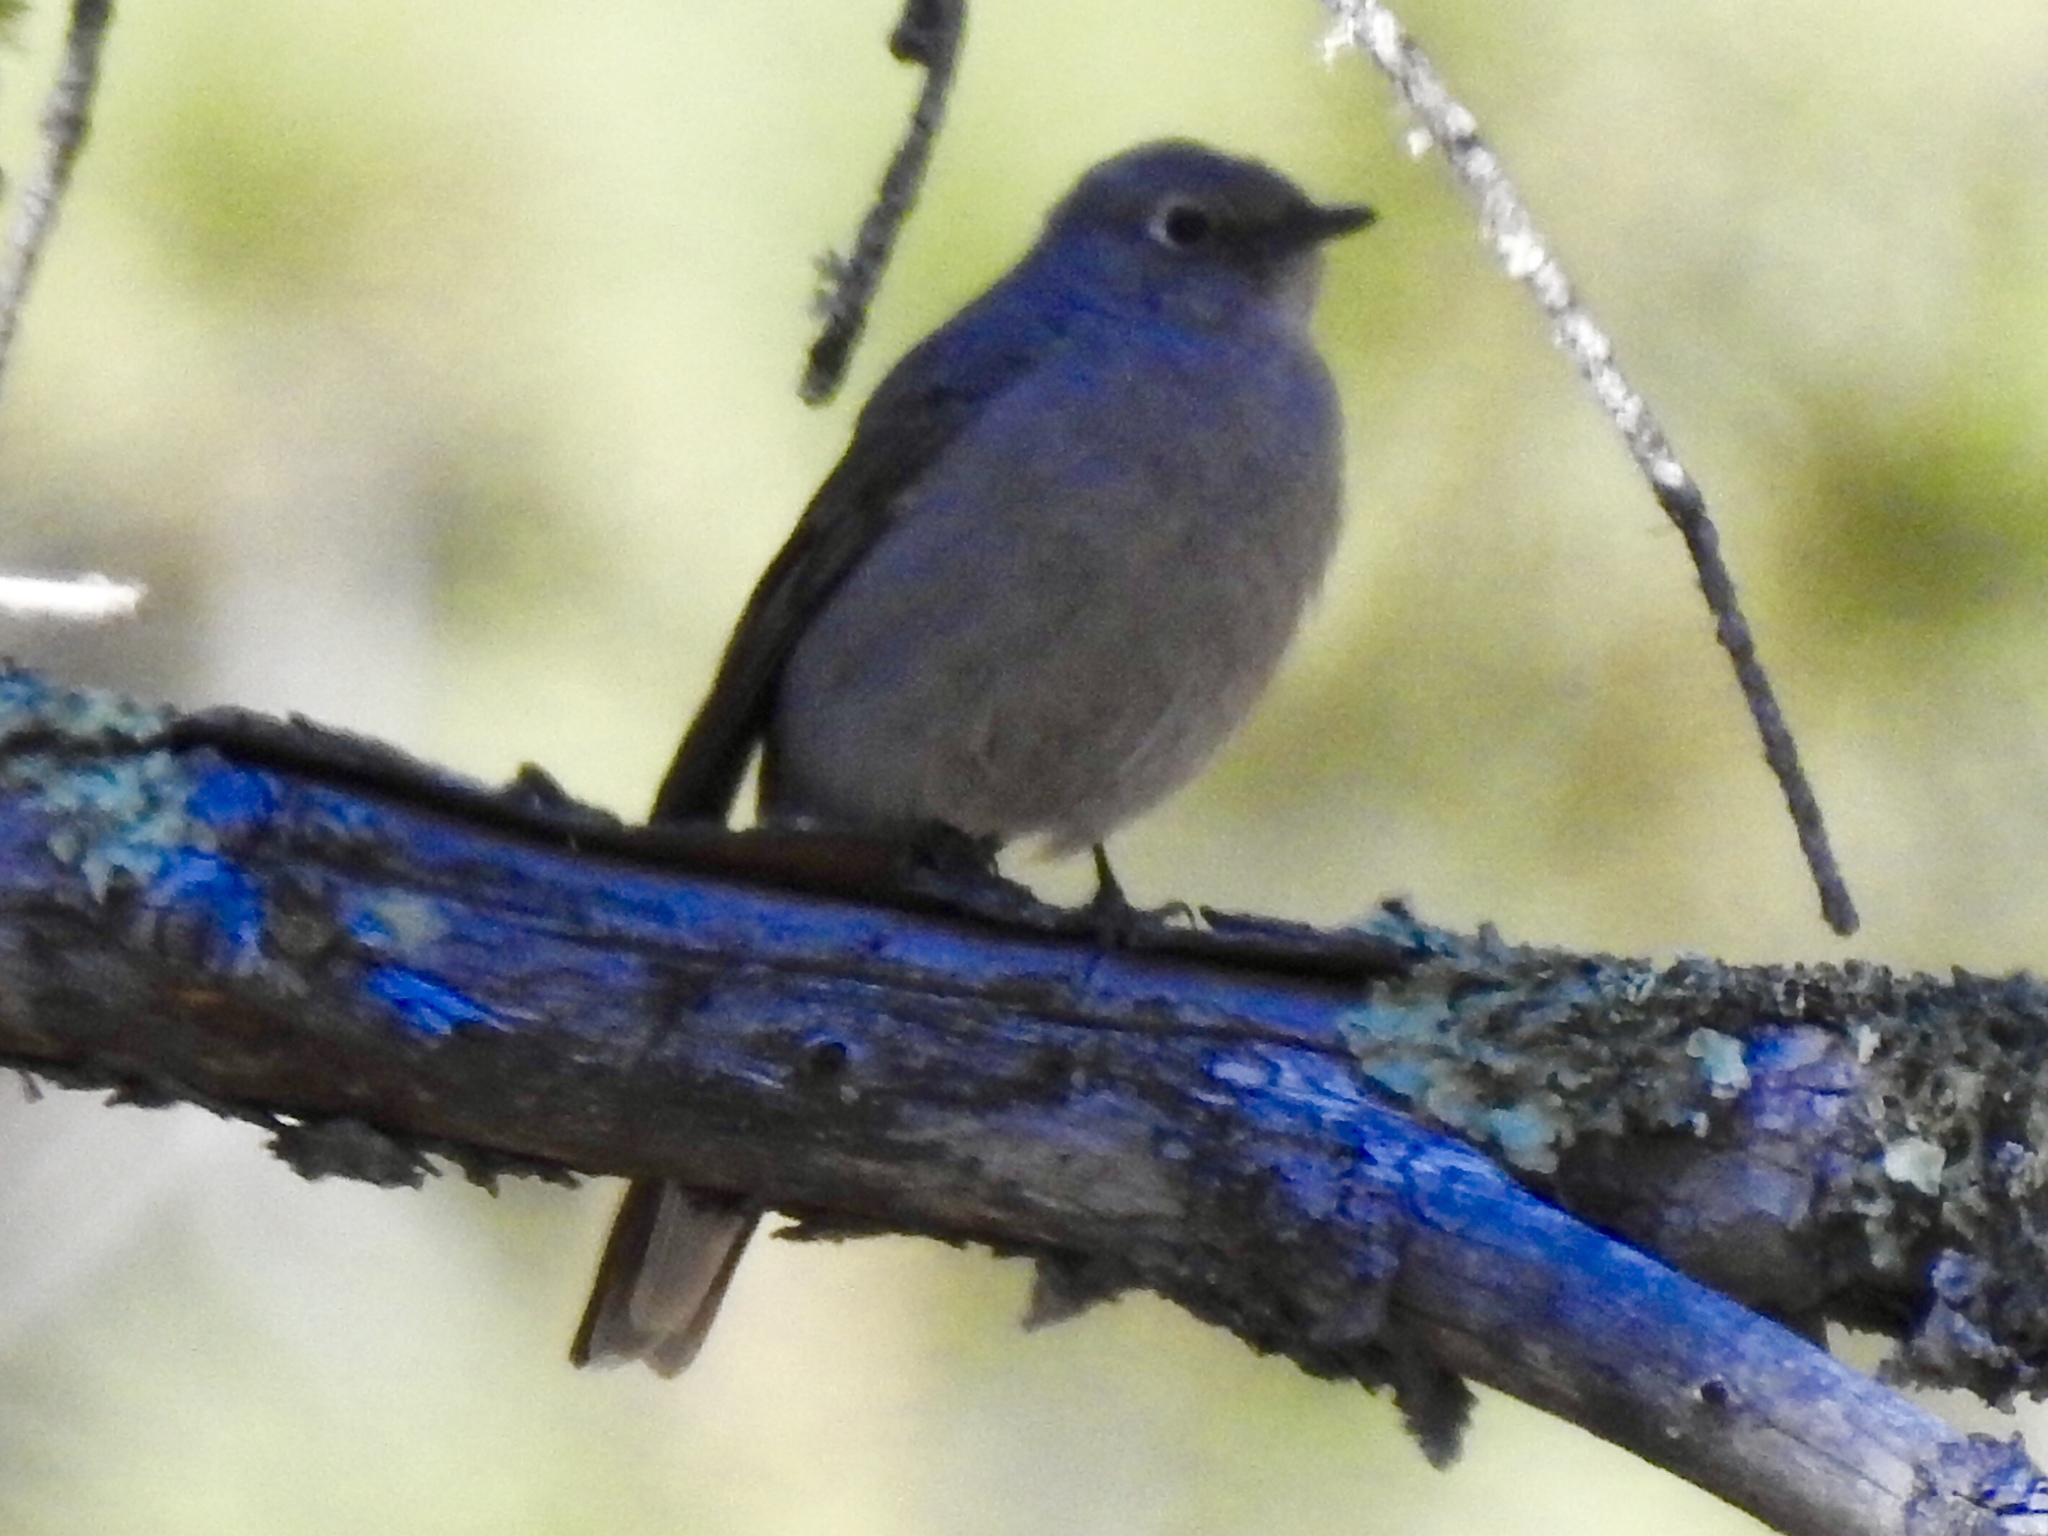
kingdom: Animalia
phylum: Chordata
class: Aves
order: Passeriformes
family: Turdidae
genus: Myadestes
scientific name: Myadestes townsendi
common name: Townsend's solitaire
